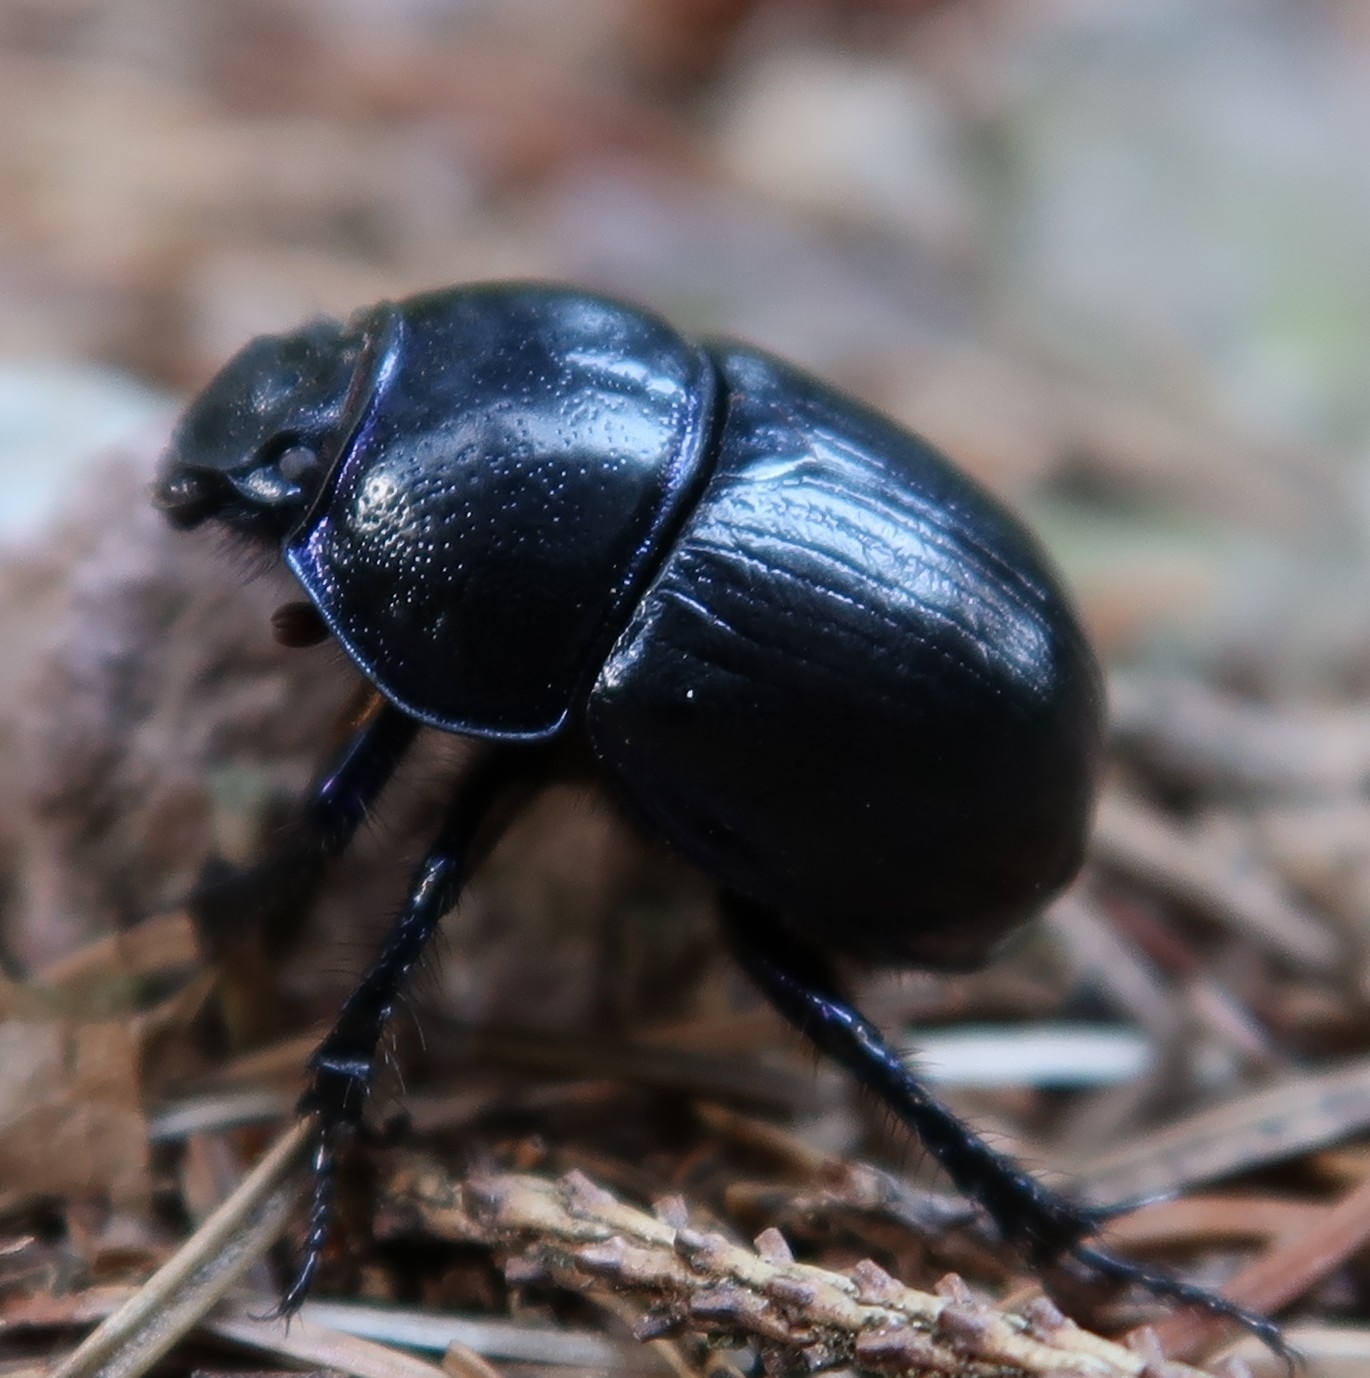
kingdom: Animalia
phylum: Arthropoda
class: Insecta
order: Coleoptera
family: Geotrupidae
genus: Anoplotrupes
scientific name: Anoplotrupes stercorosus
